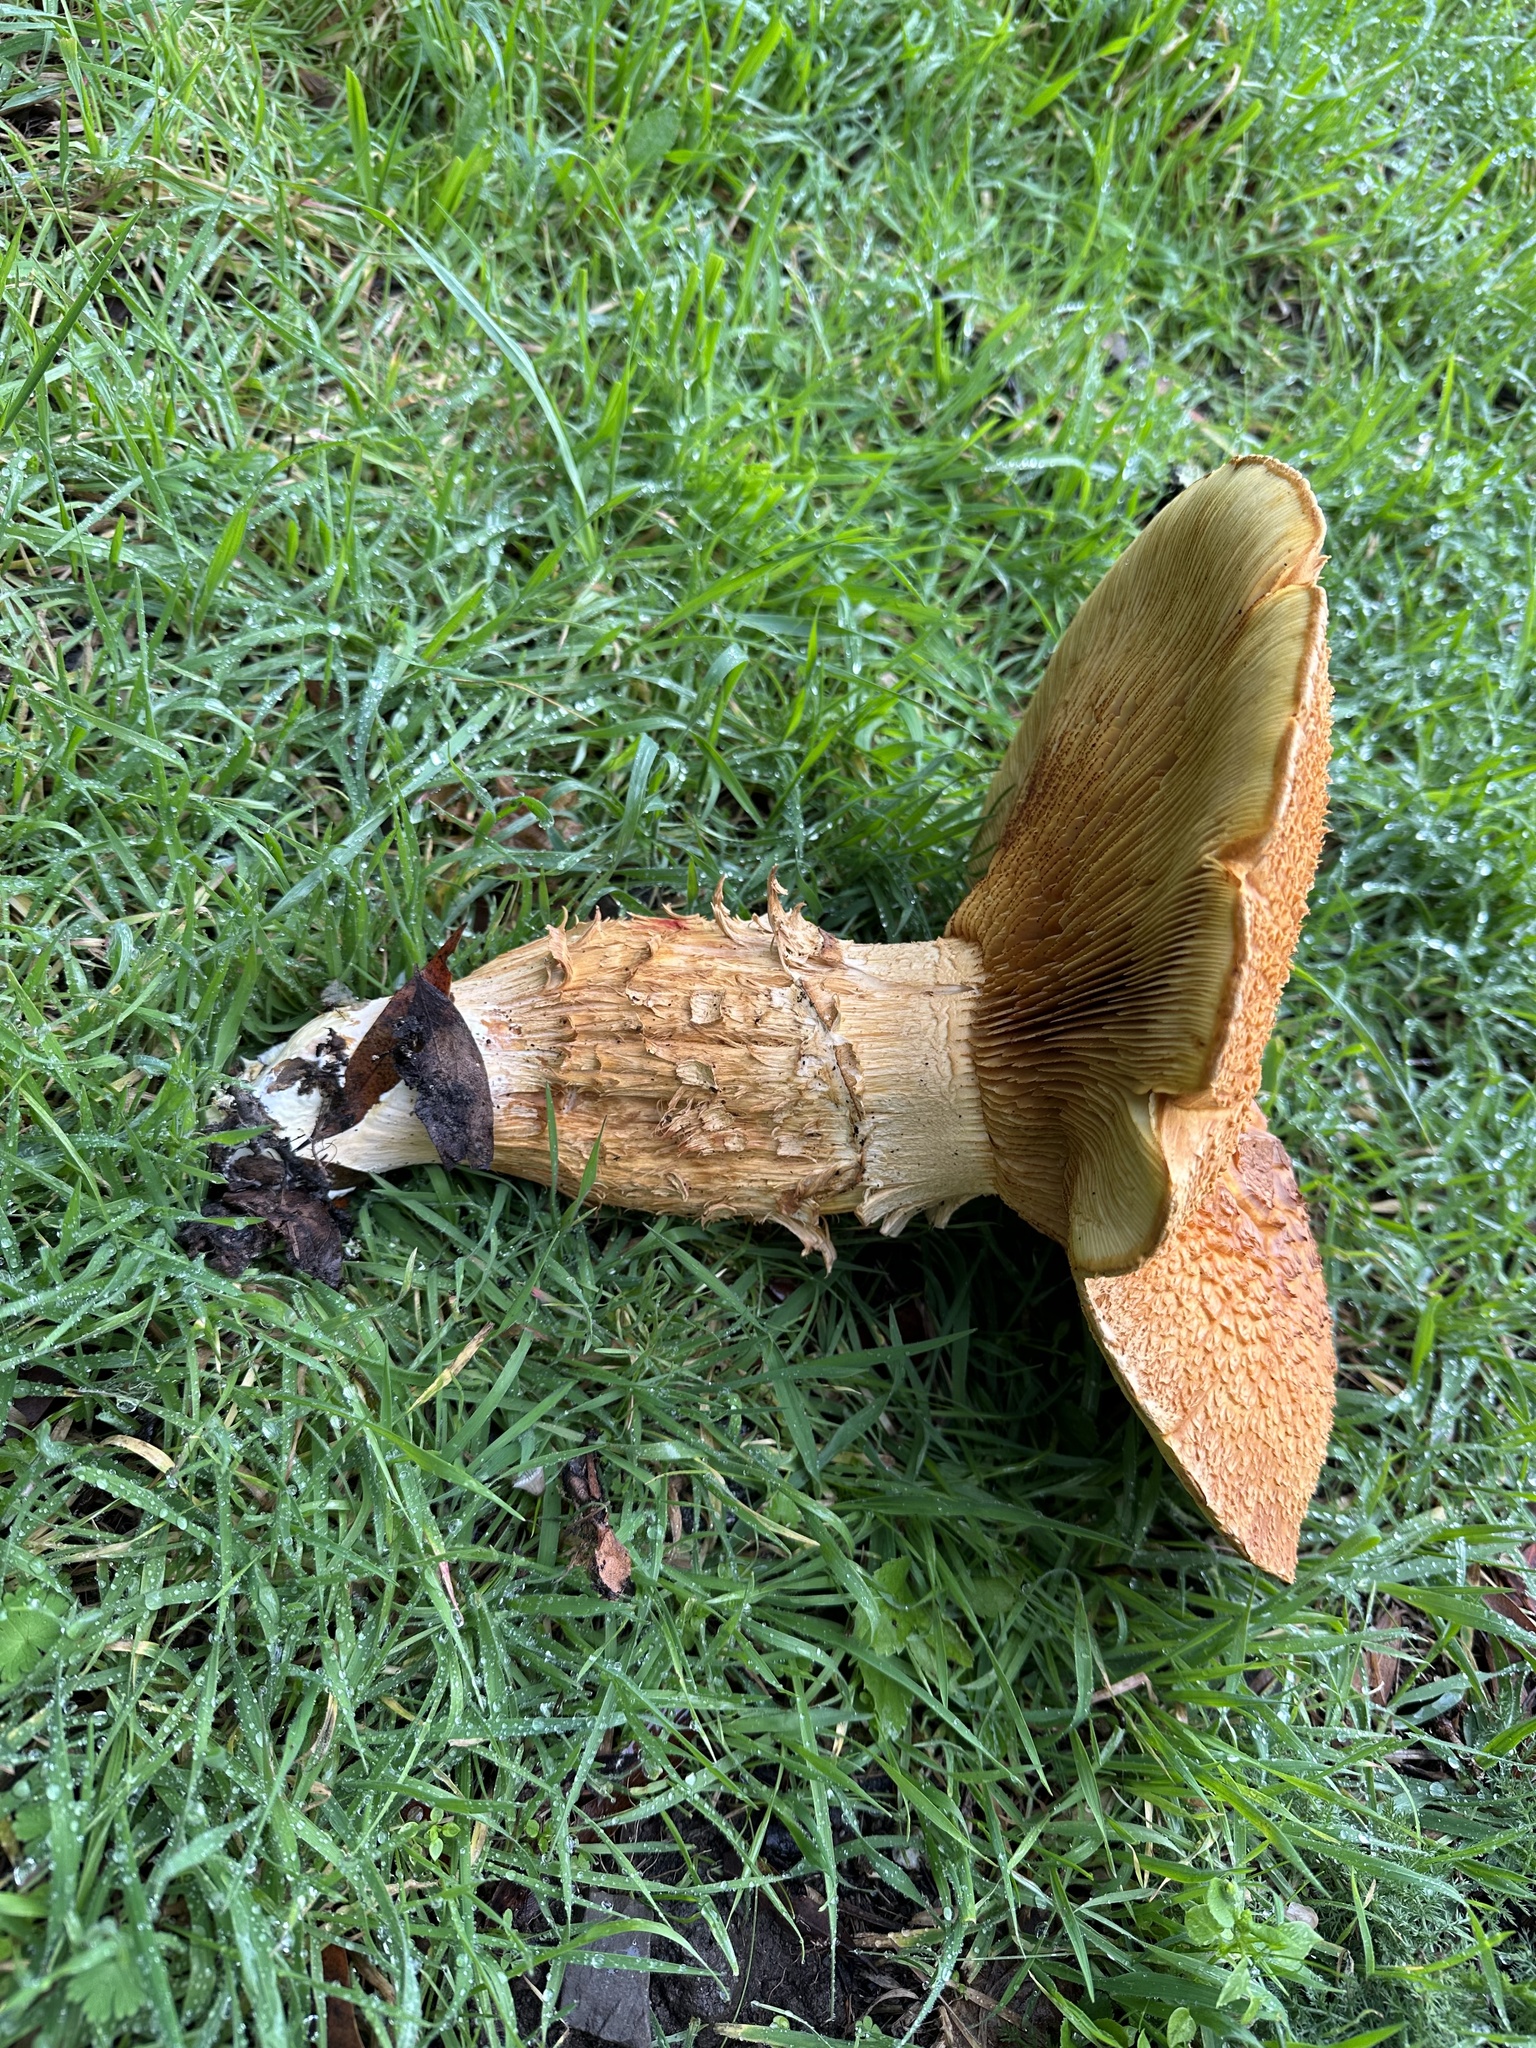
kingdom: Fungi
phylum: Basidiomycota
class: Agaricomycetes
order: Agaricales
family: Hymenogastraceae
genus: Gymnopilus
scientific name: Gymnopilus ventricosus
